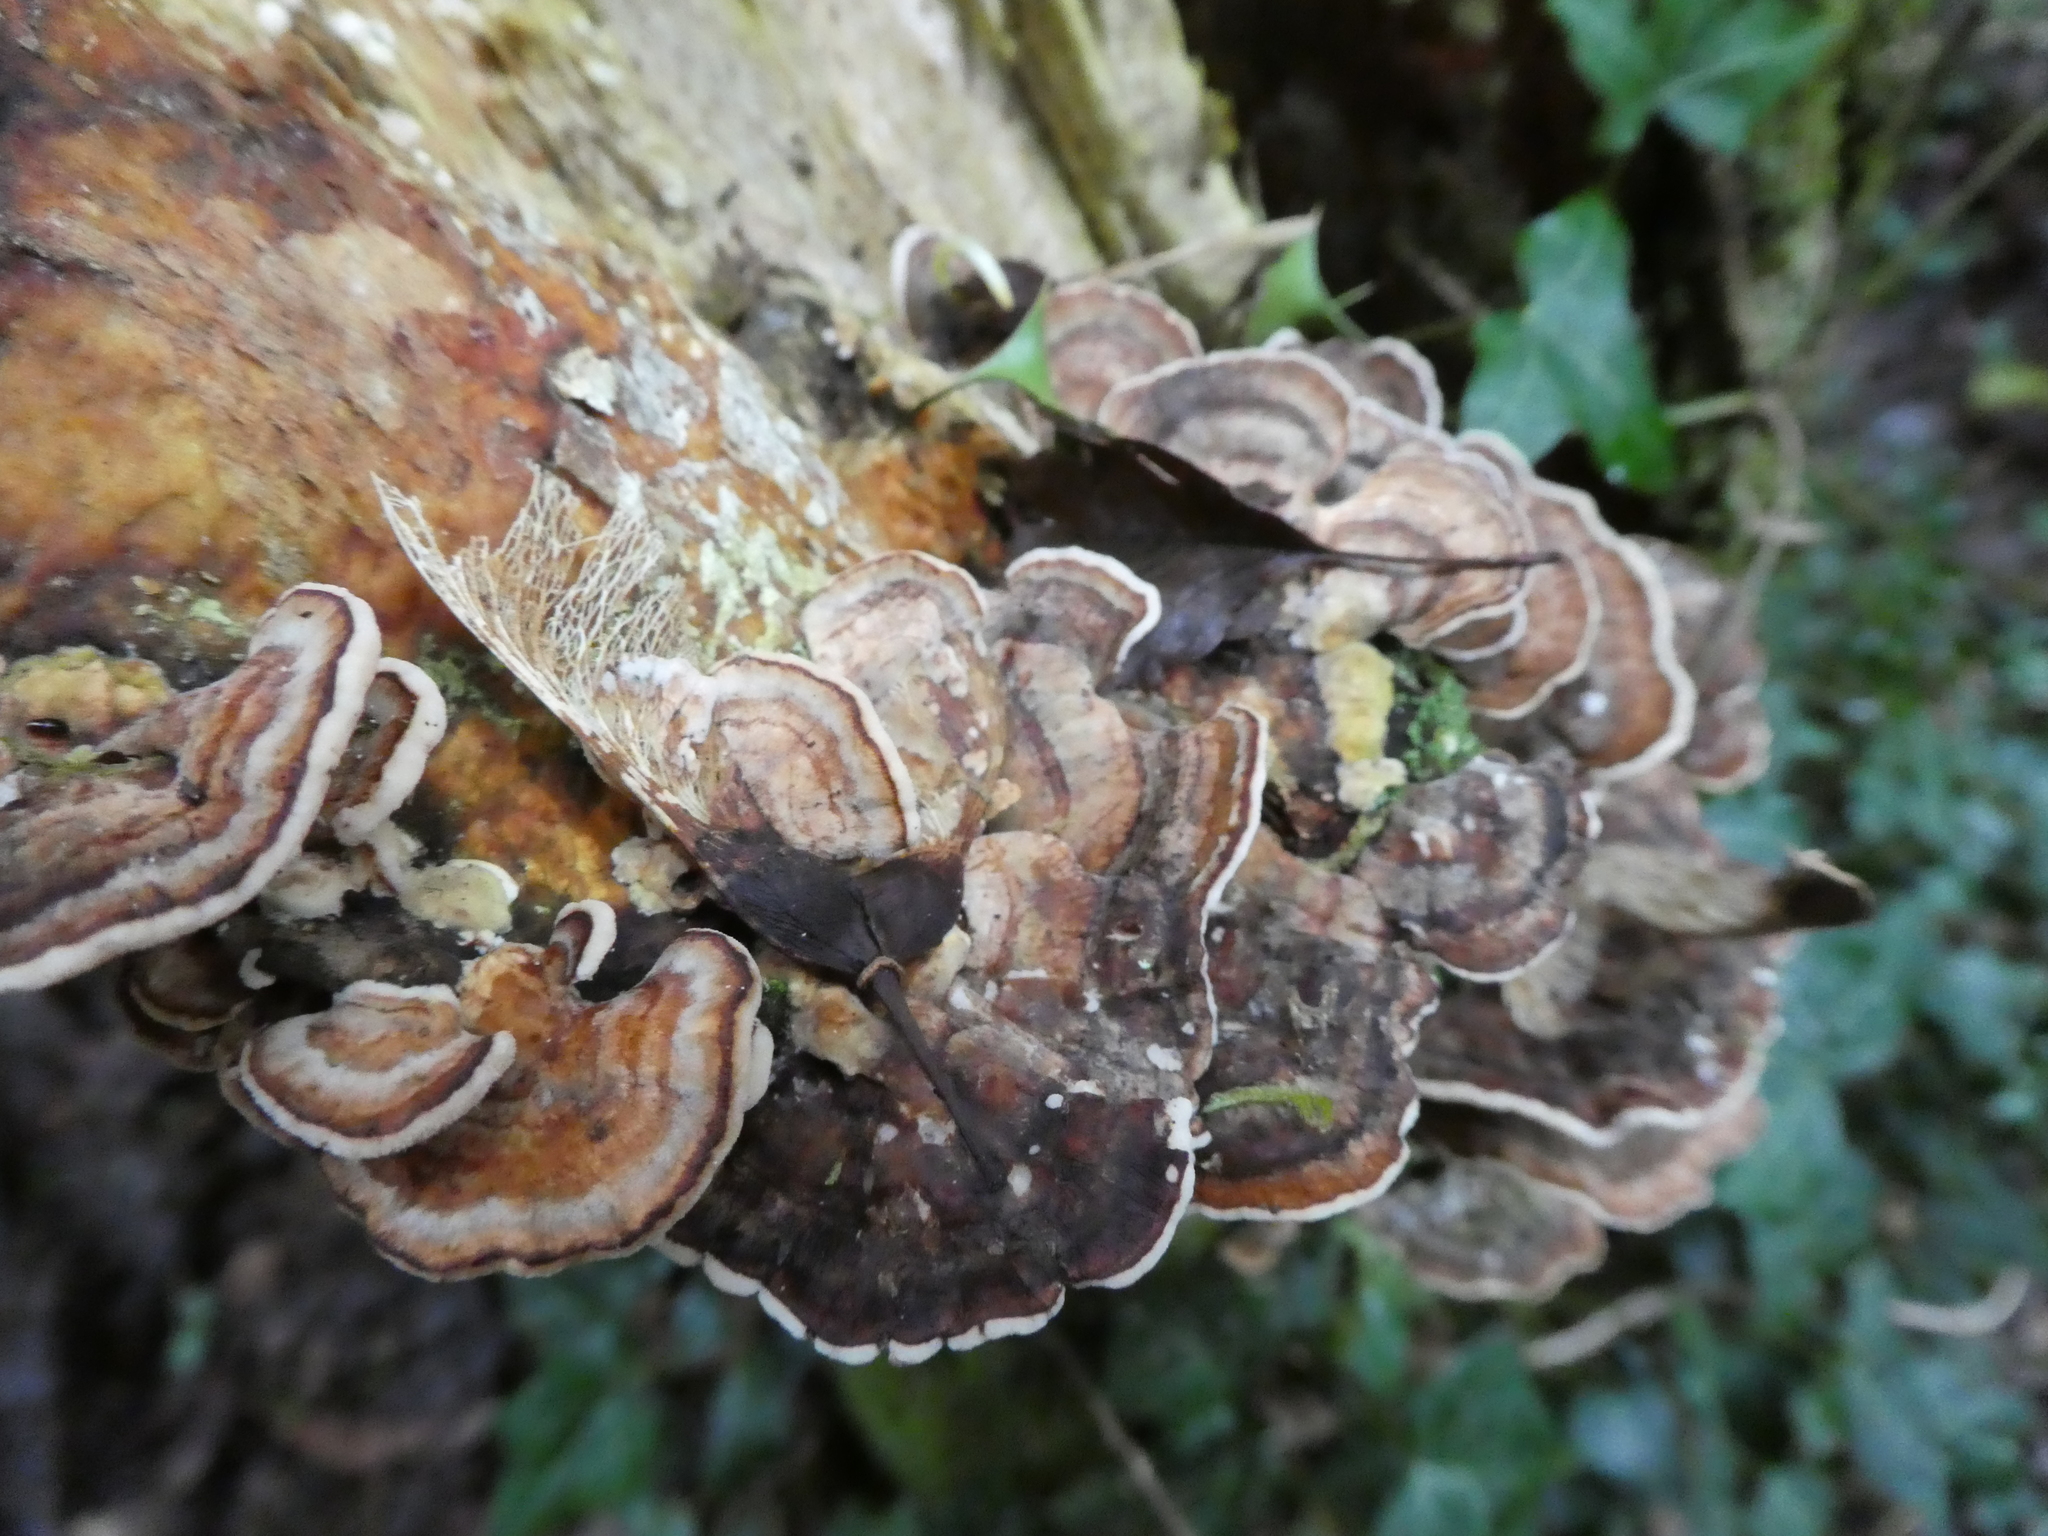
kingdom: Fungi
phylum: Basidiomycota
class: Agaricomycetes
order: Polyporales
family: Polyporaceae
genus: Trametes
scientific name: Trametes versicolor
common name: Turkeytail
